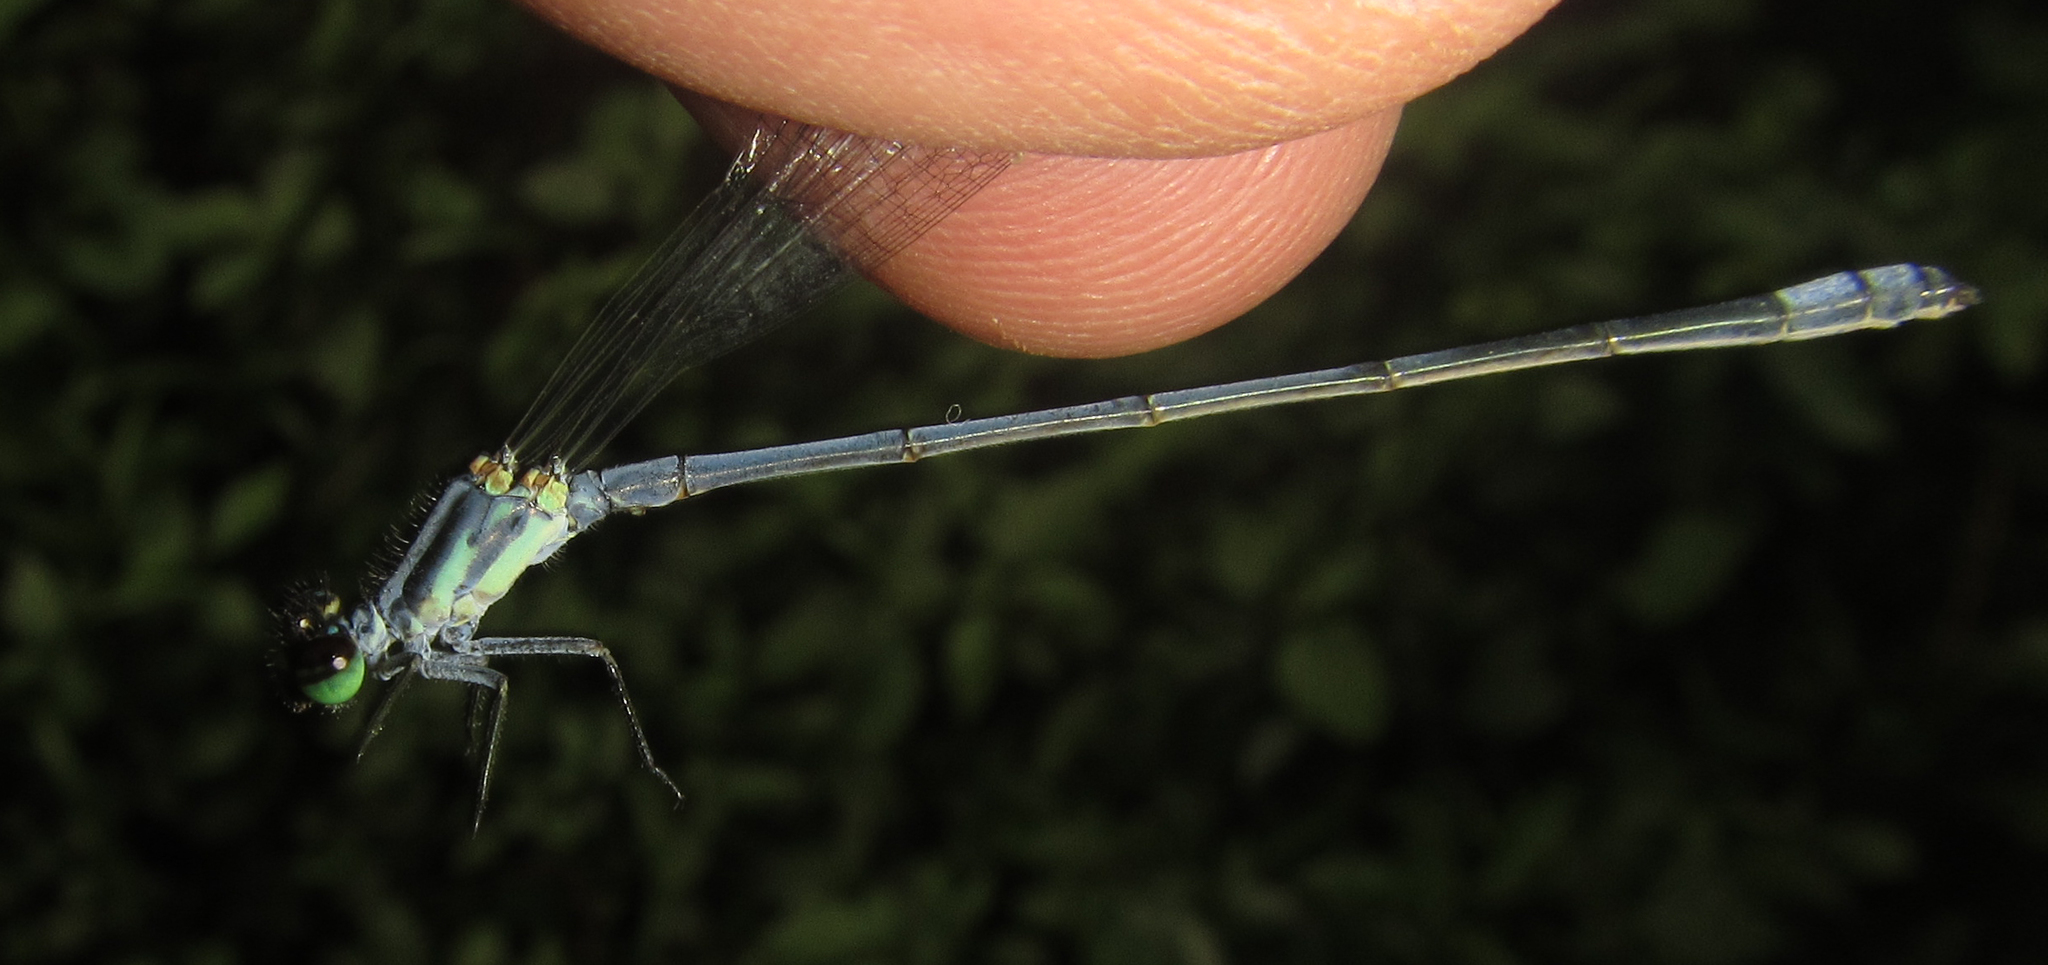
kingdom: Animalia
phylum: Arthropoda
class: Insecta
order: Odonata
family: Coenagrionidae
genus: Pseudagrion
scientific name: Pseudagrion kersteni
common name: Powder-faced sprite
